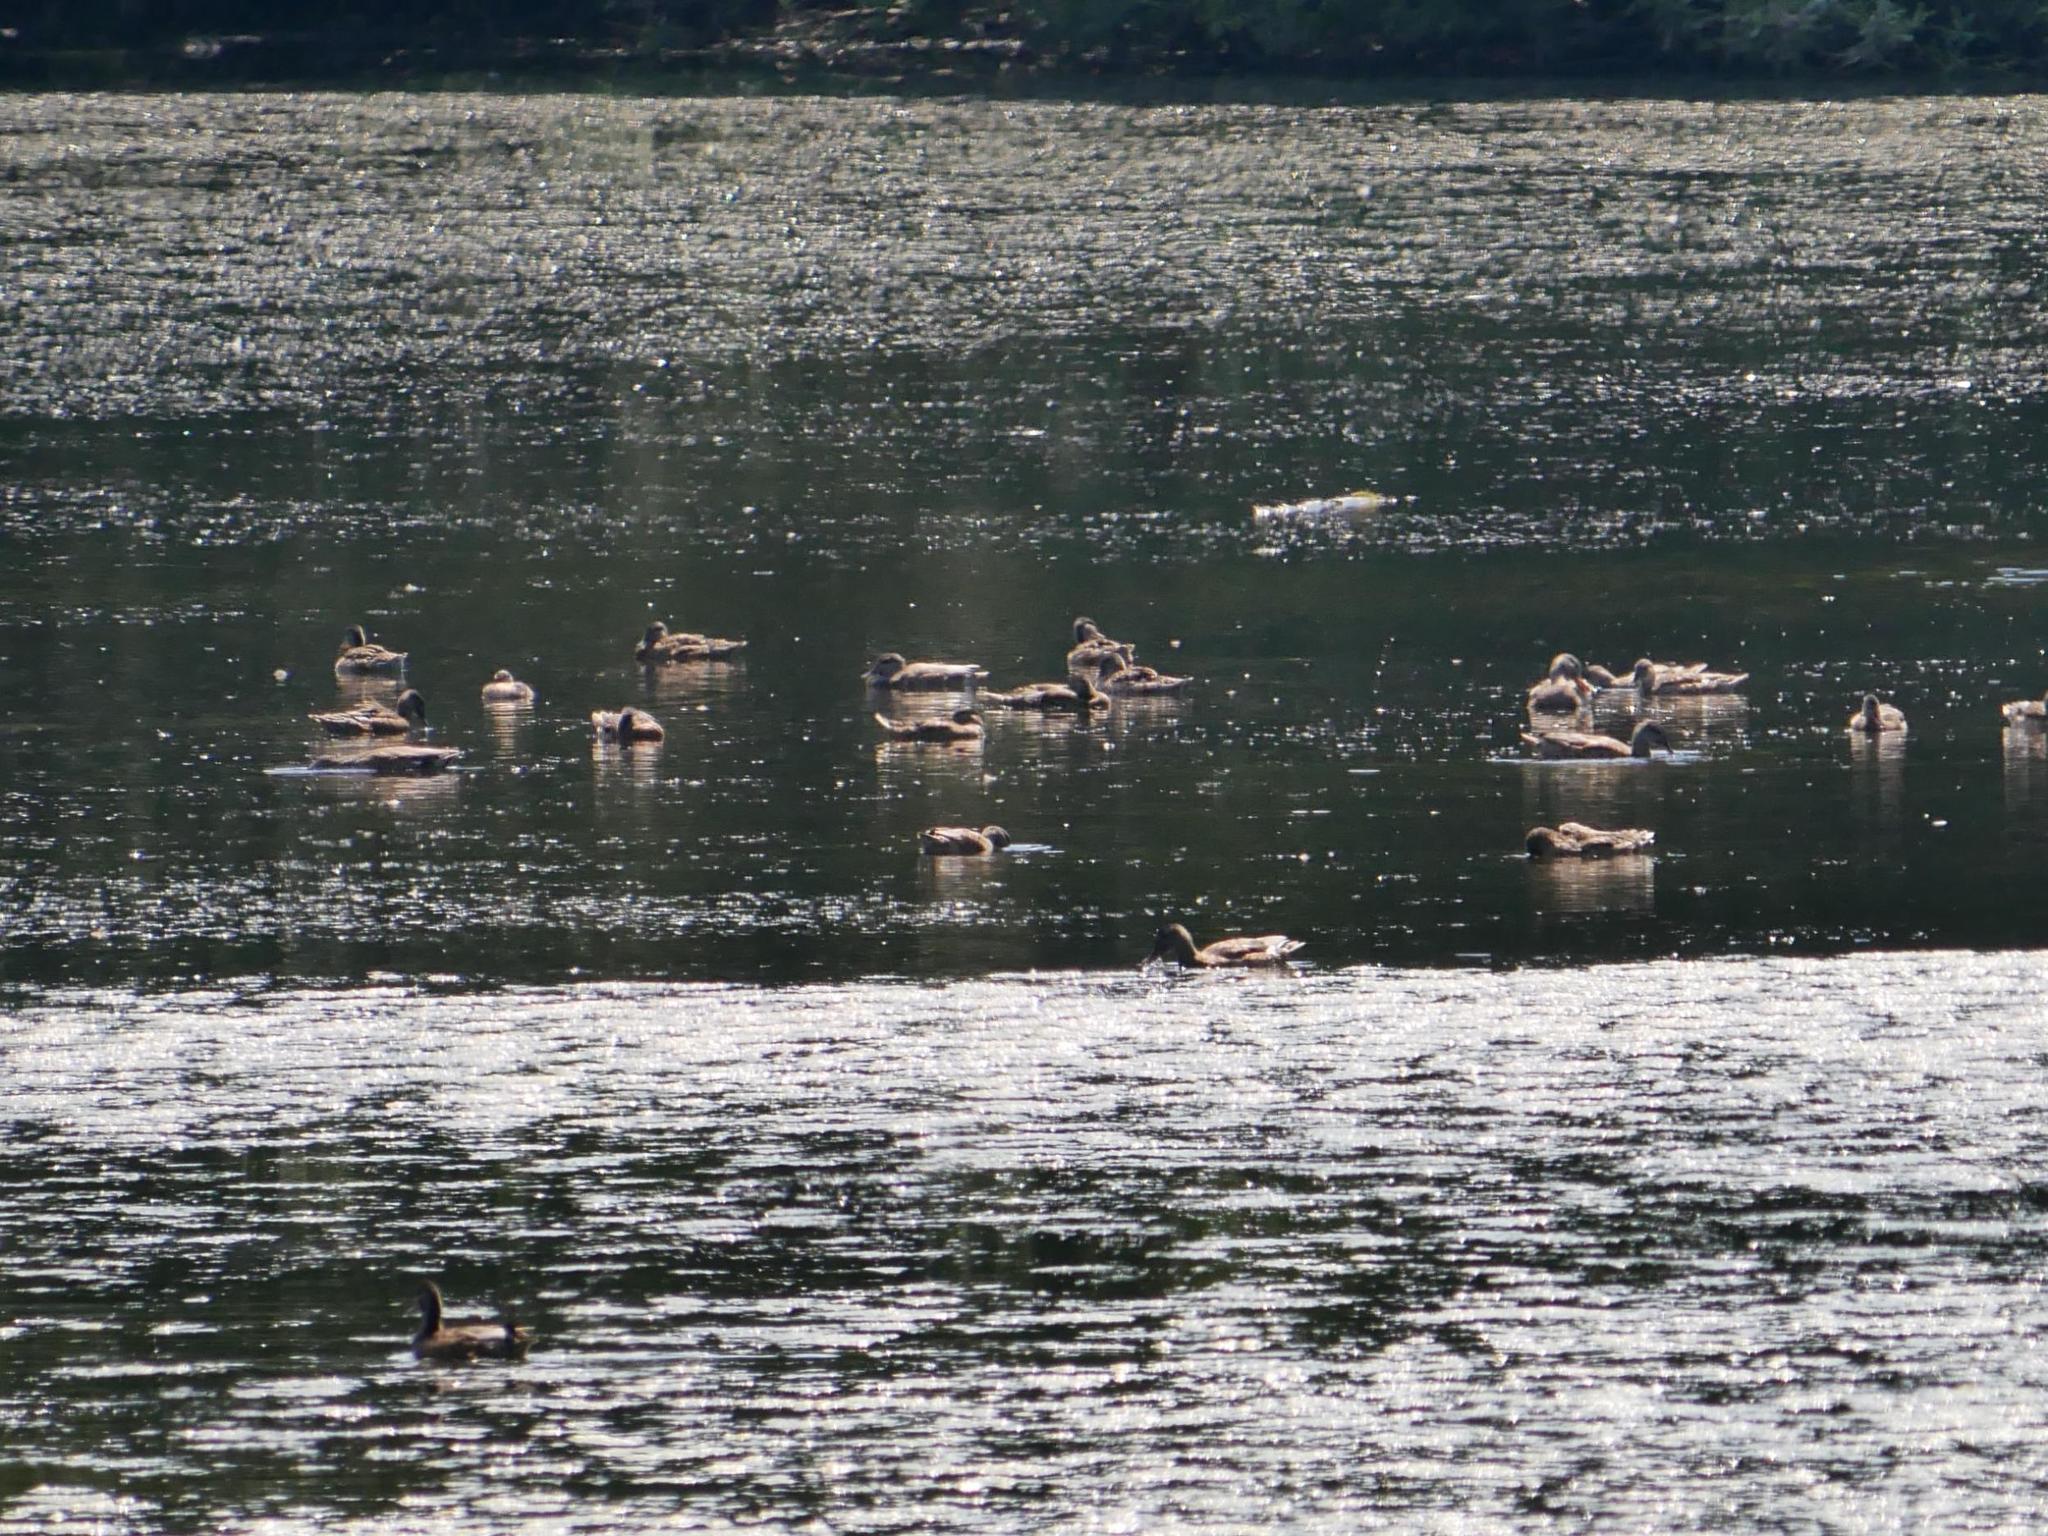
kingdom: Animalia
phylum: Chordata
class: Aves
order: Anseriformes
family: Anatidae
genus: Mareca
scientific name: Mareca strepera
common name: Gadwall
